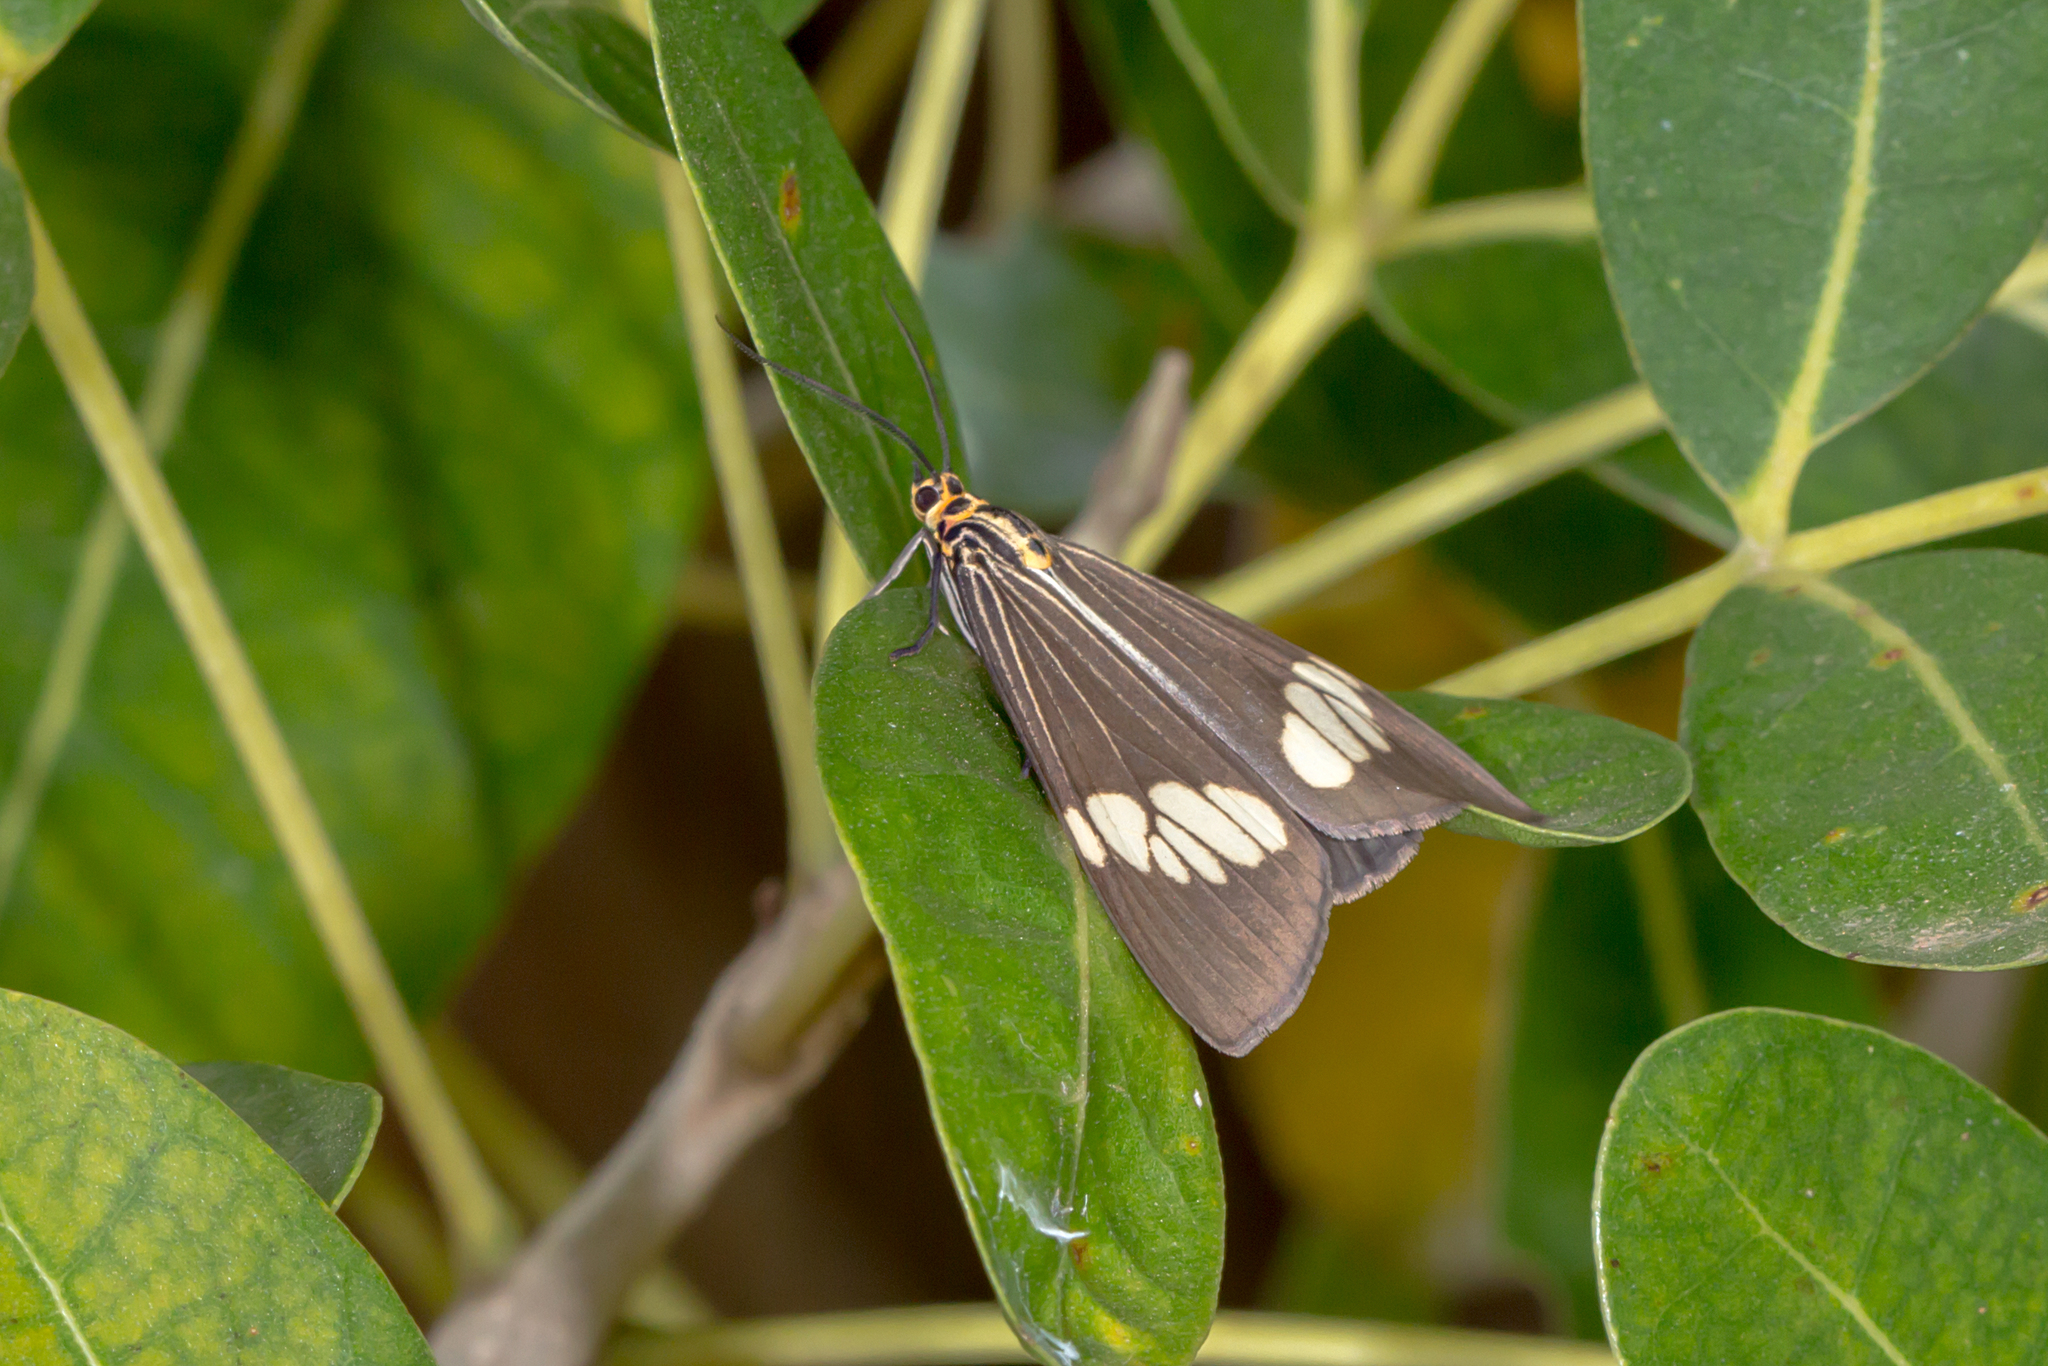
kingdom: Animalia
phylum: Arthropoda
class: Insecta
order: Lepidoptera
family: Erebidae
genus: Nyctemera
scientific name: Nyctemera baulus
